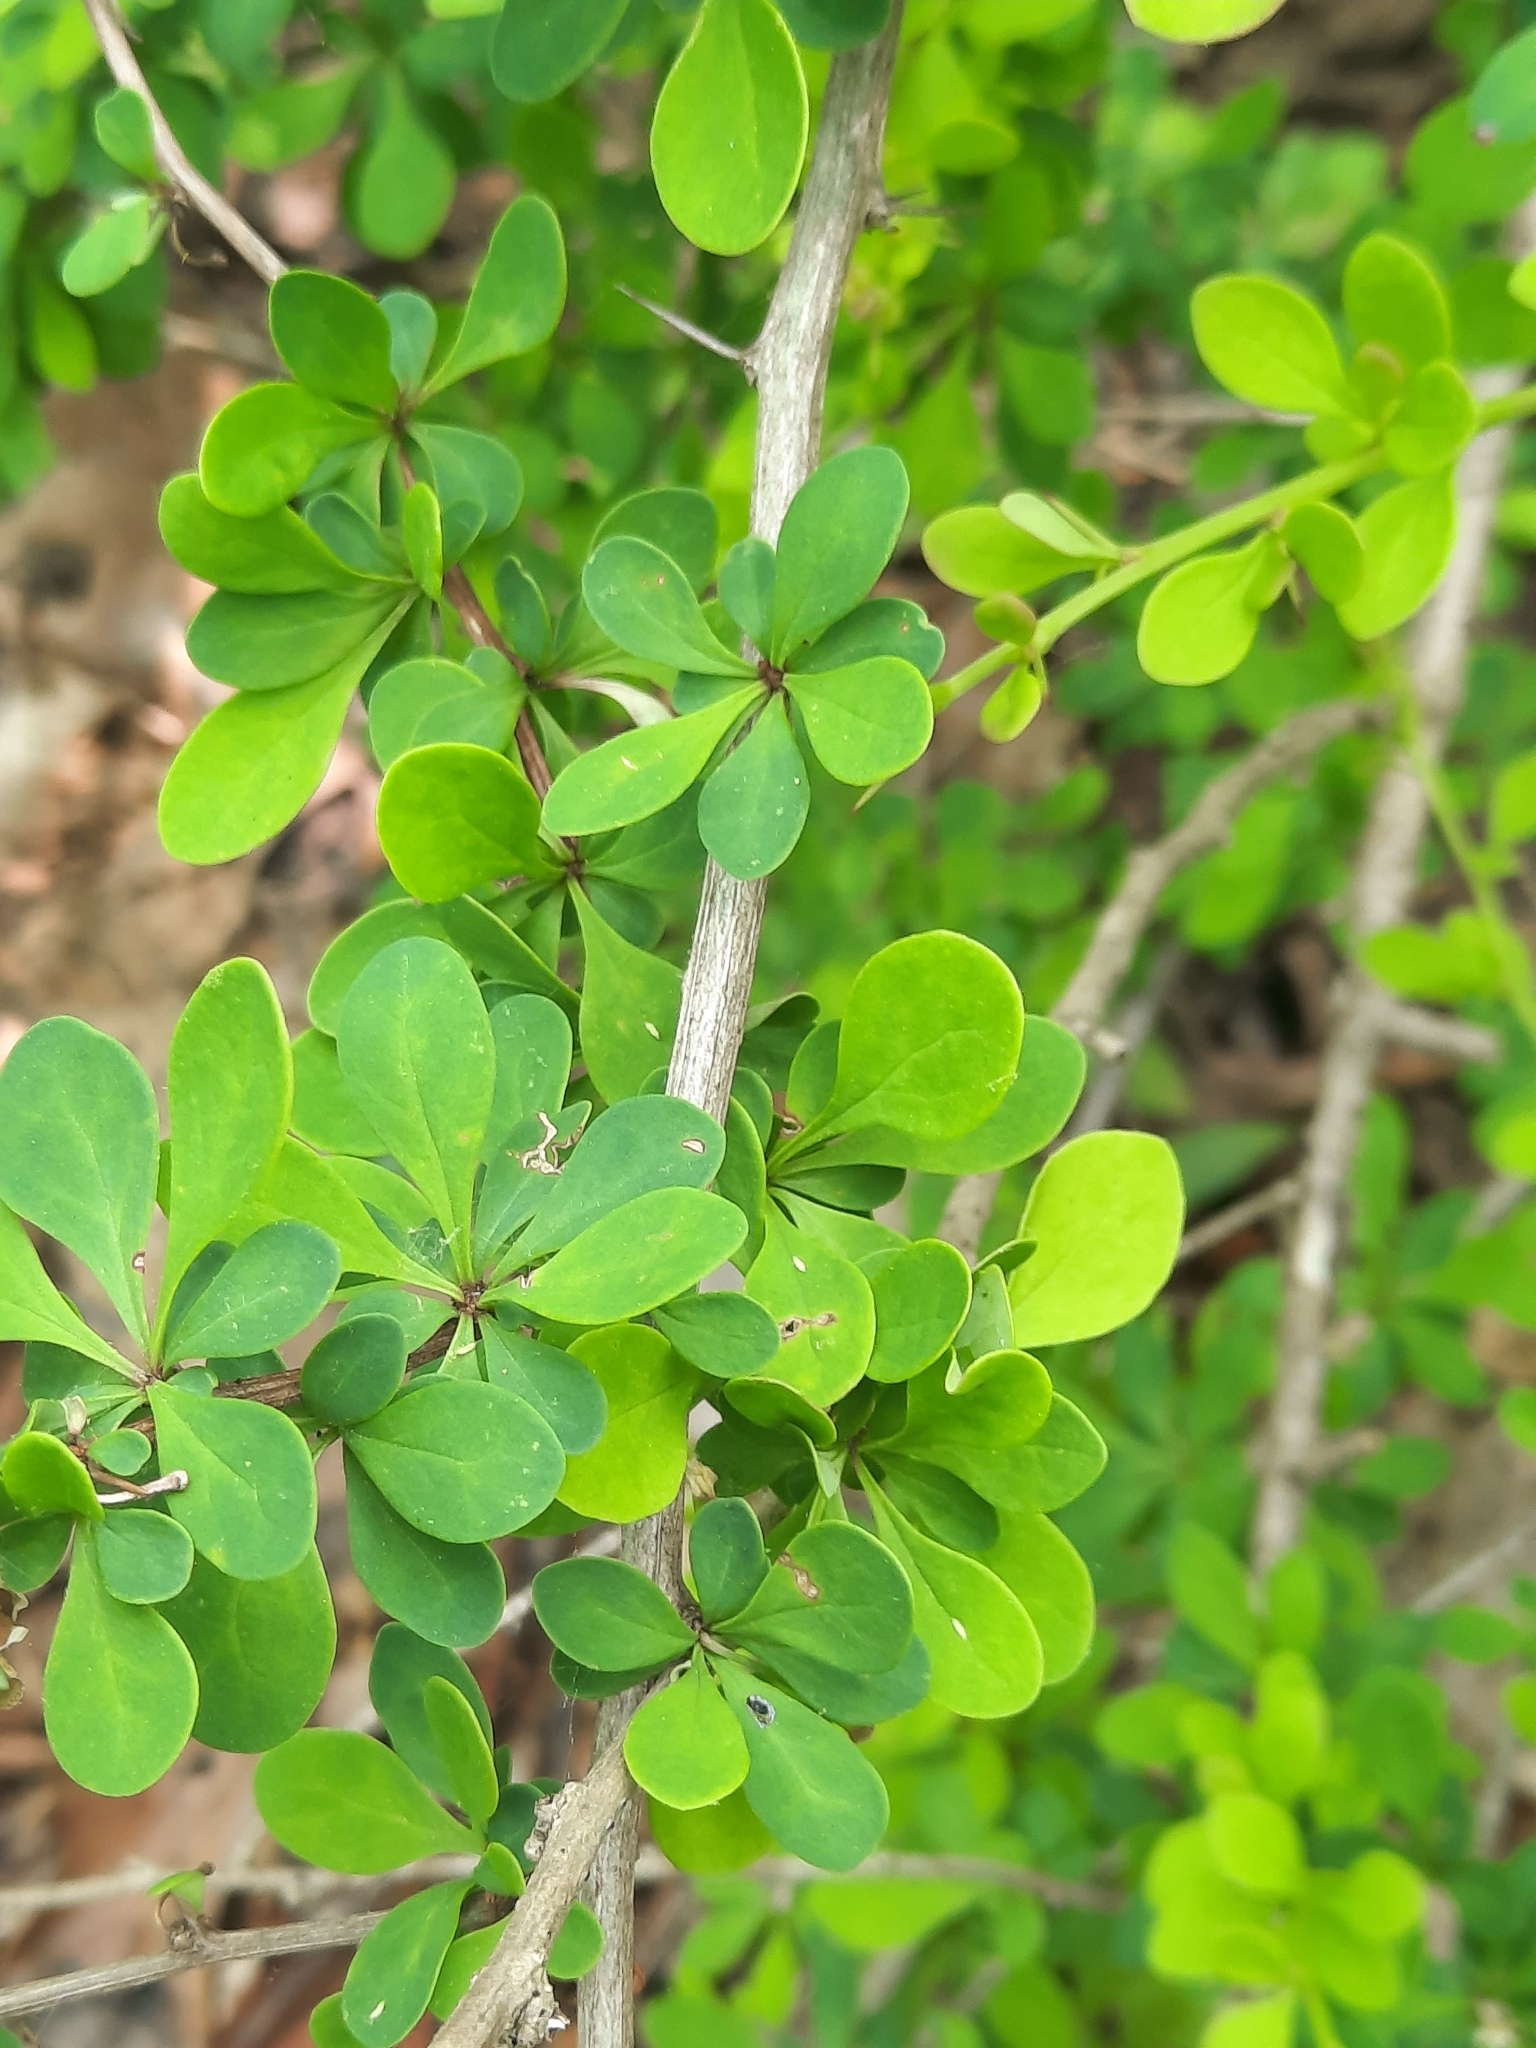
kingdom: Plantae
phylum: Tracheophyta
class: Magnoliopsida
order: Ranunculales
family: Berberidaceae
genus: Berberis
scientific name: Berberis thunbergii
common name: Japanese barberry
